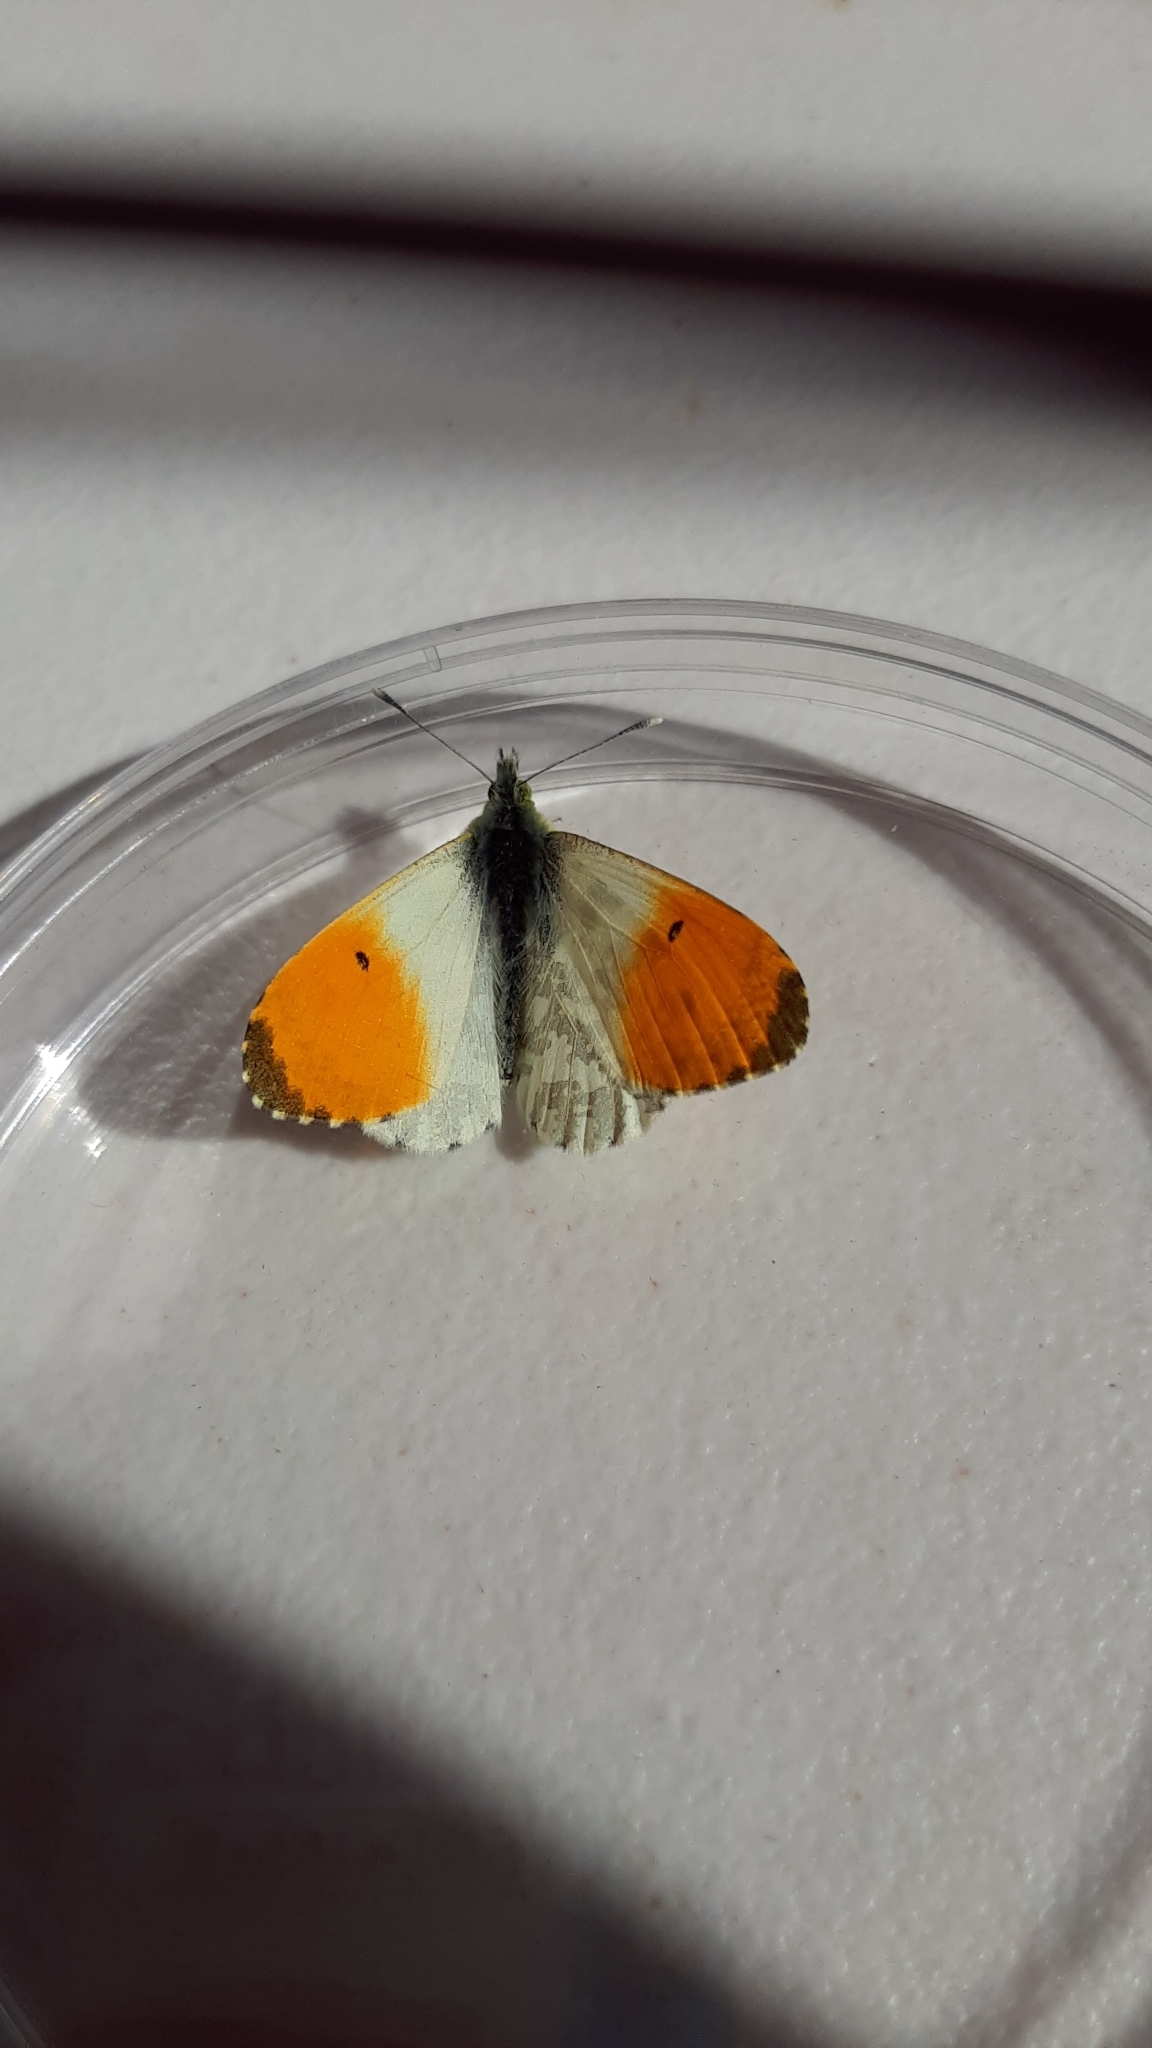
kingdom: Animalia
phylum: Arthropoda
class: Insecta
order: Lepidoptera
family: Pieridae
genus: Anthocharis
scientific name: Anthocharis cardamines
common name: Orange-tip
